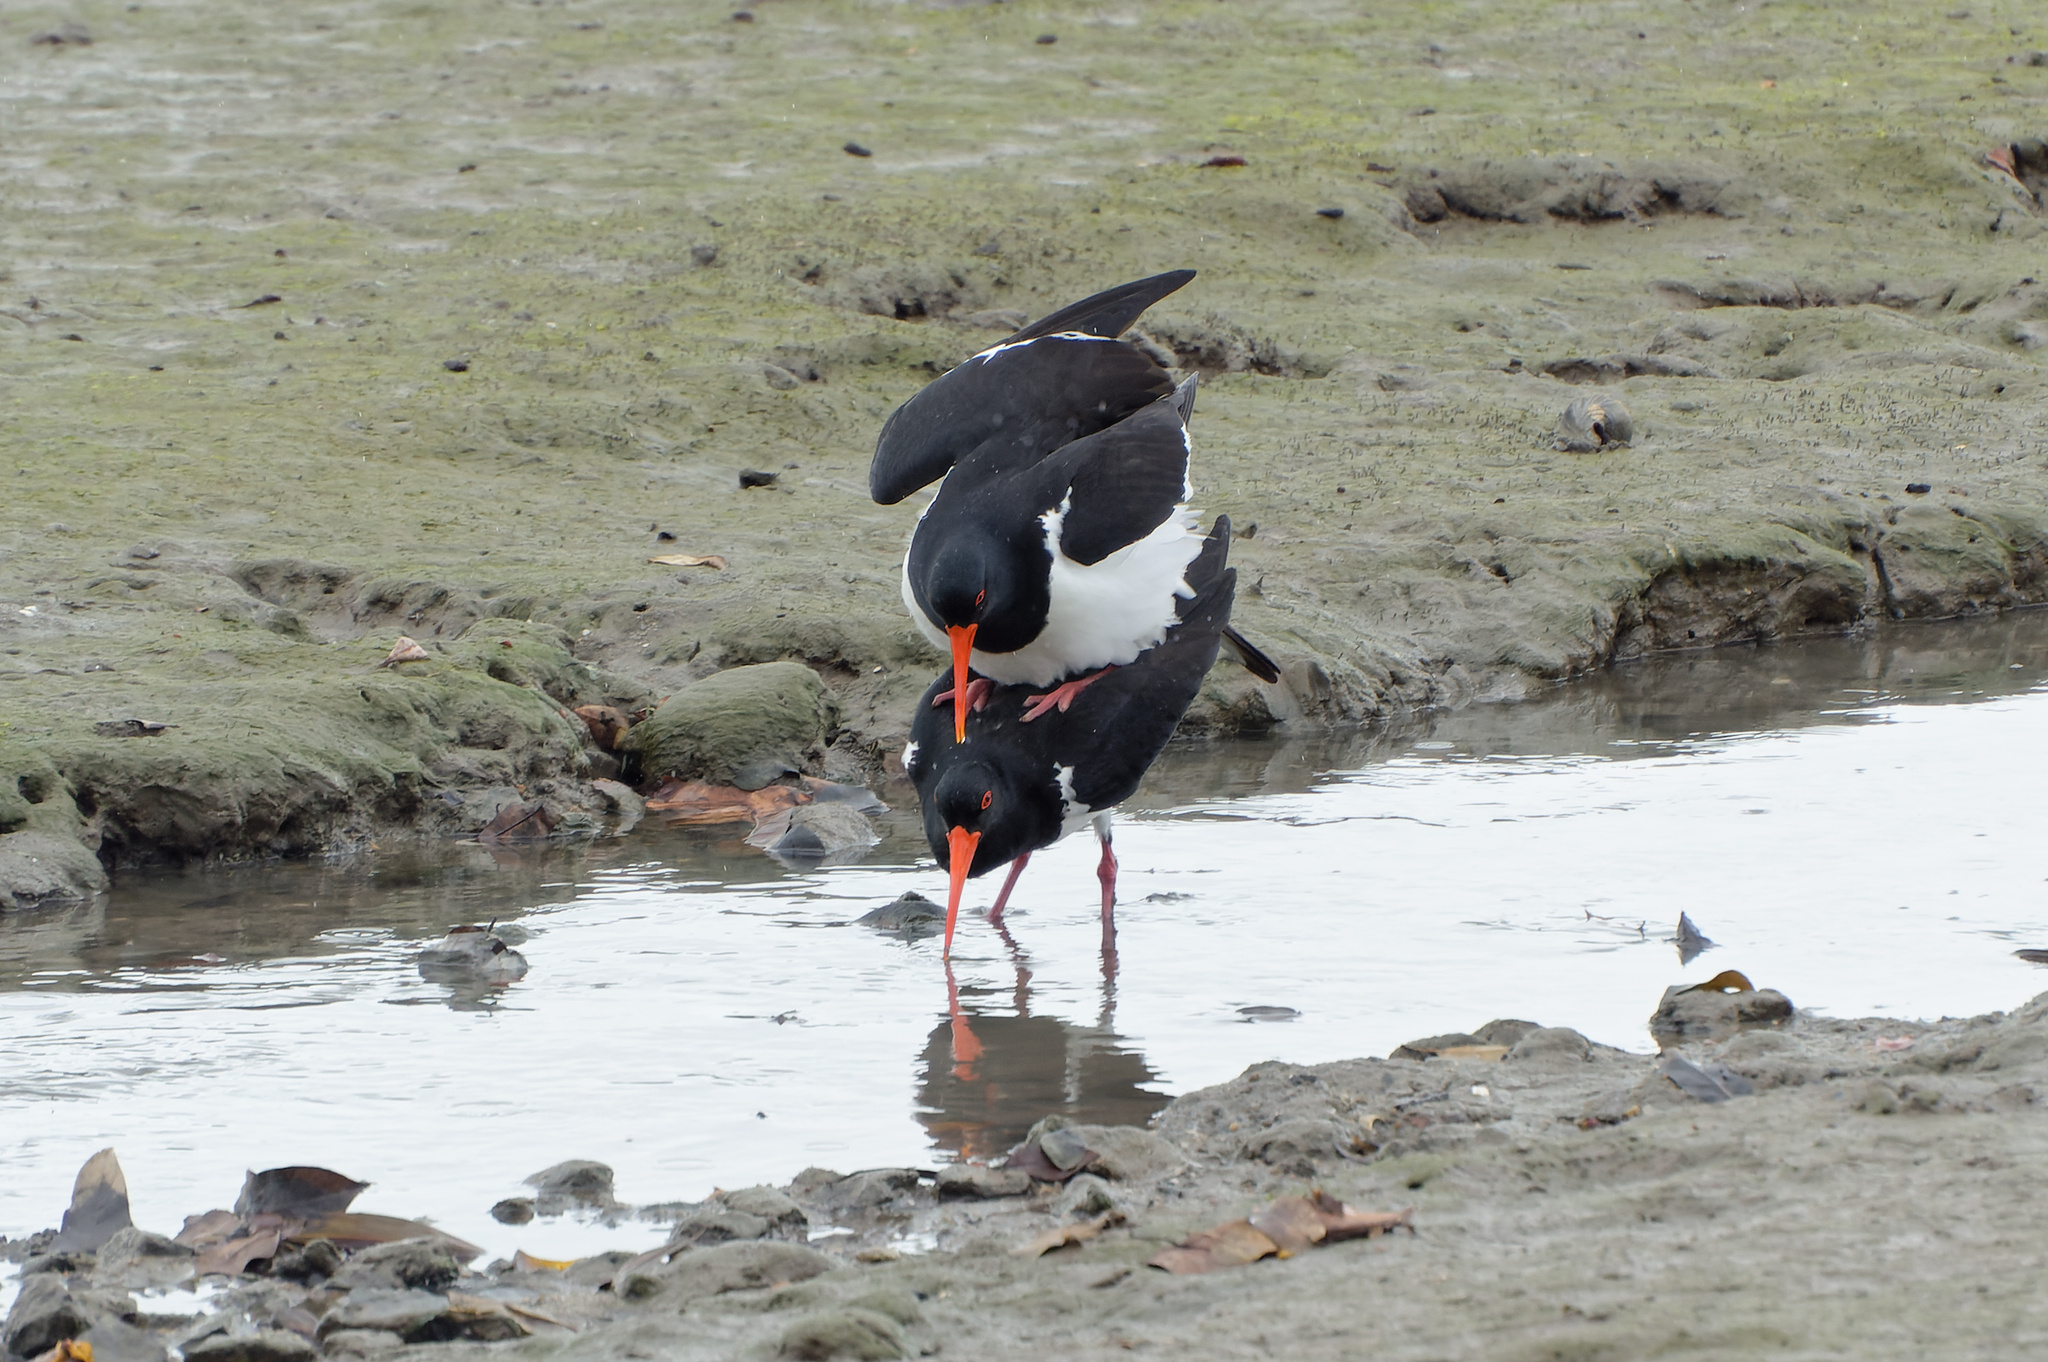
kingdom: Animalia
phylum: Chordata
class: Aves
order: Charadriiformes
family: Haematopodidae
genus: Haematopus
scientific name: Haematopus longirostris
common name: Pied oystercatcher
